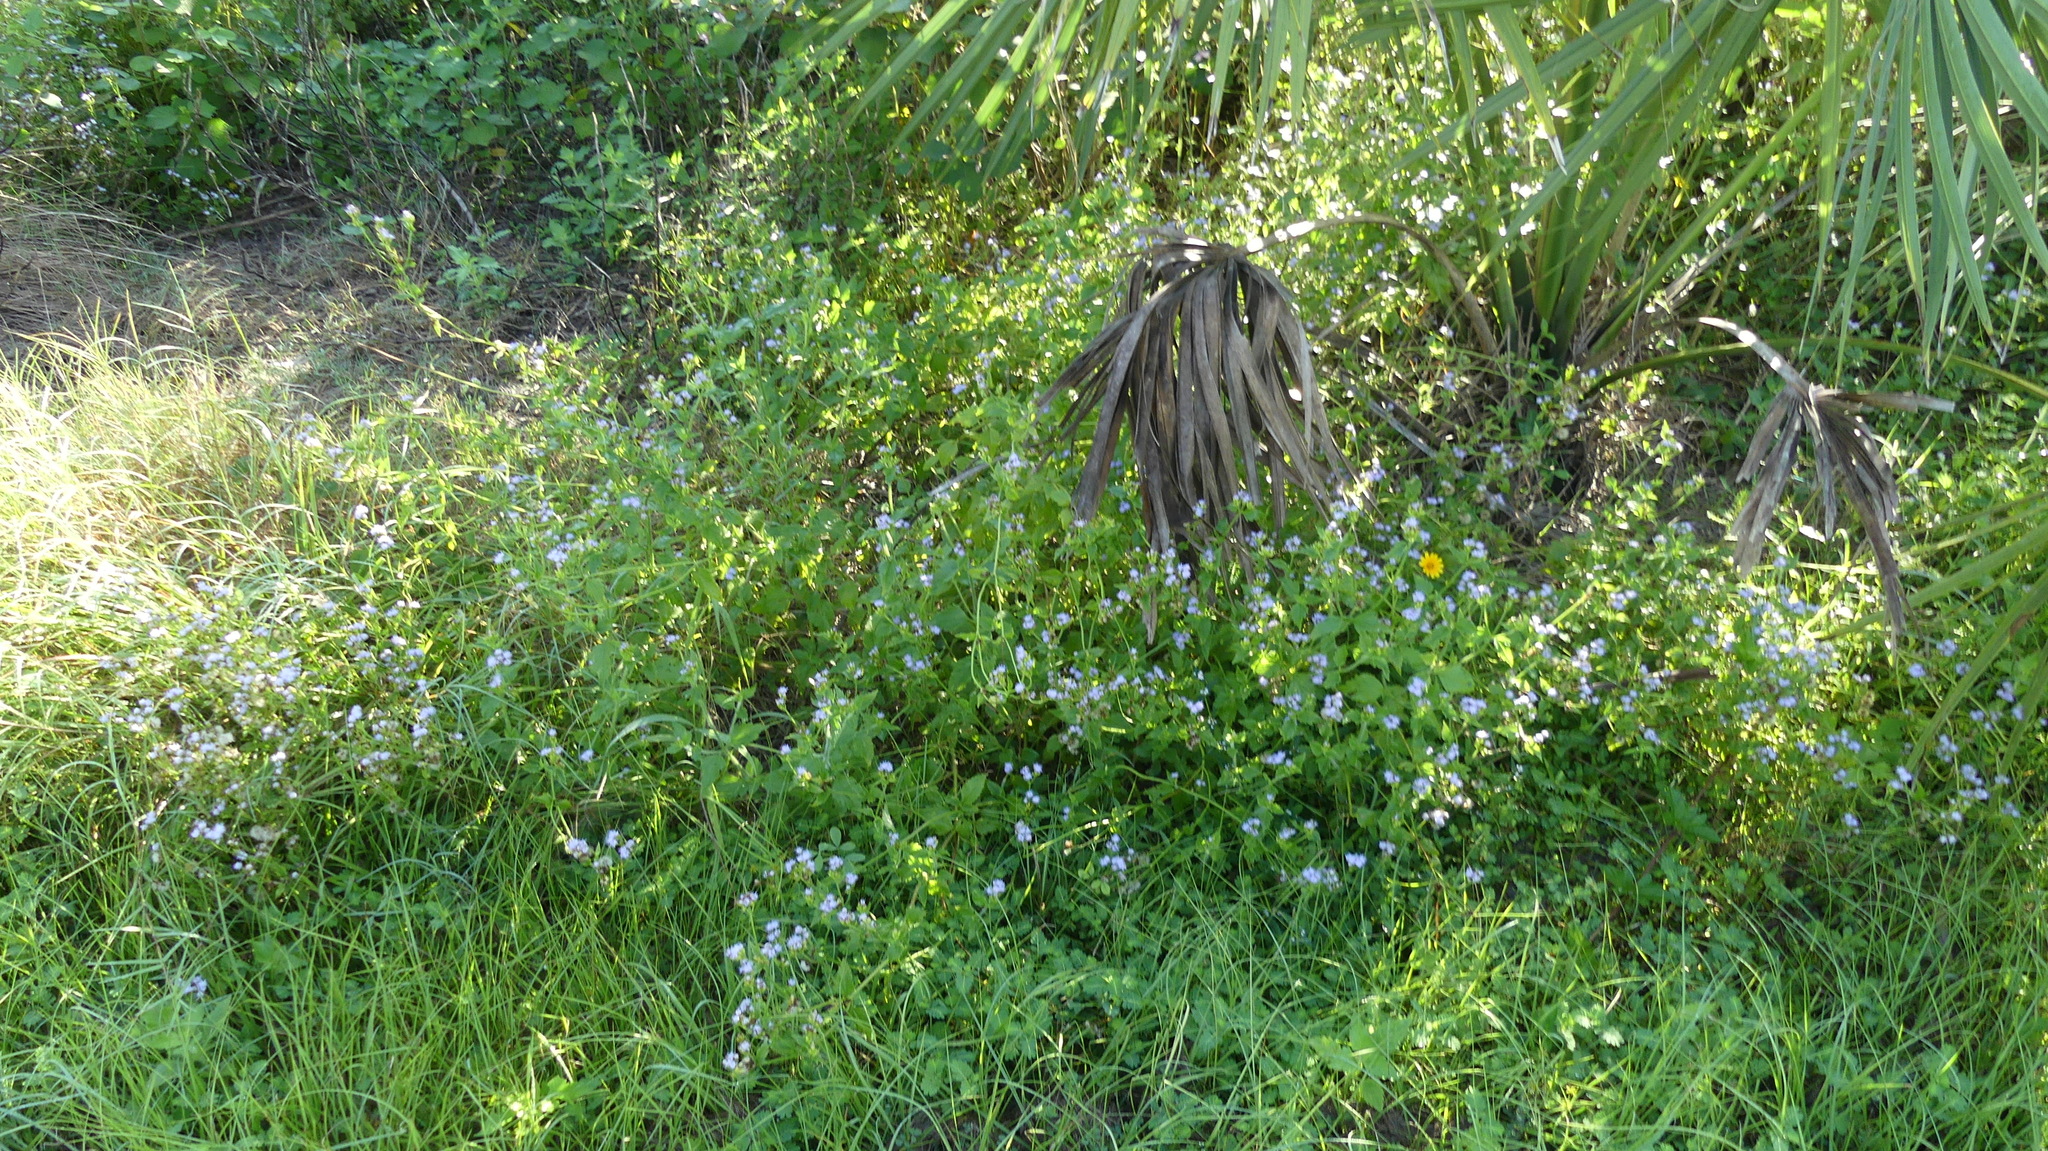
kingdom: Plantae
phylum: Tracheophyta
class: Magnoliopsida
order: Asterales
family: Asteraceae
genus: Praxelis
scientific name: Praxelis clematidea
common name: Praxelis
